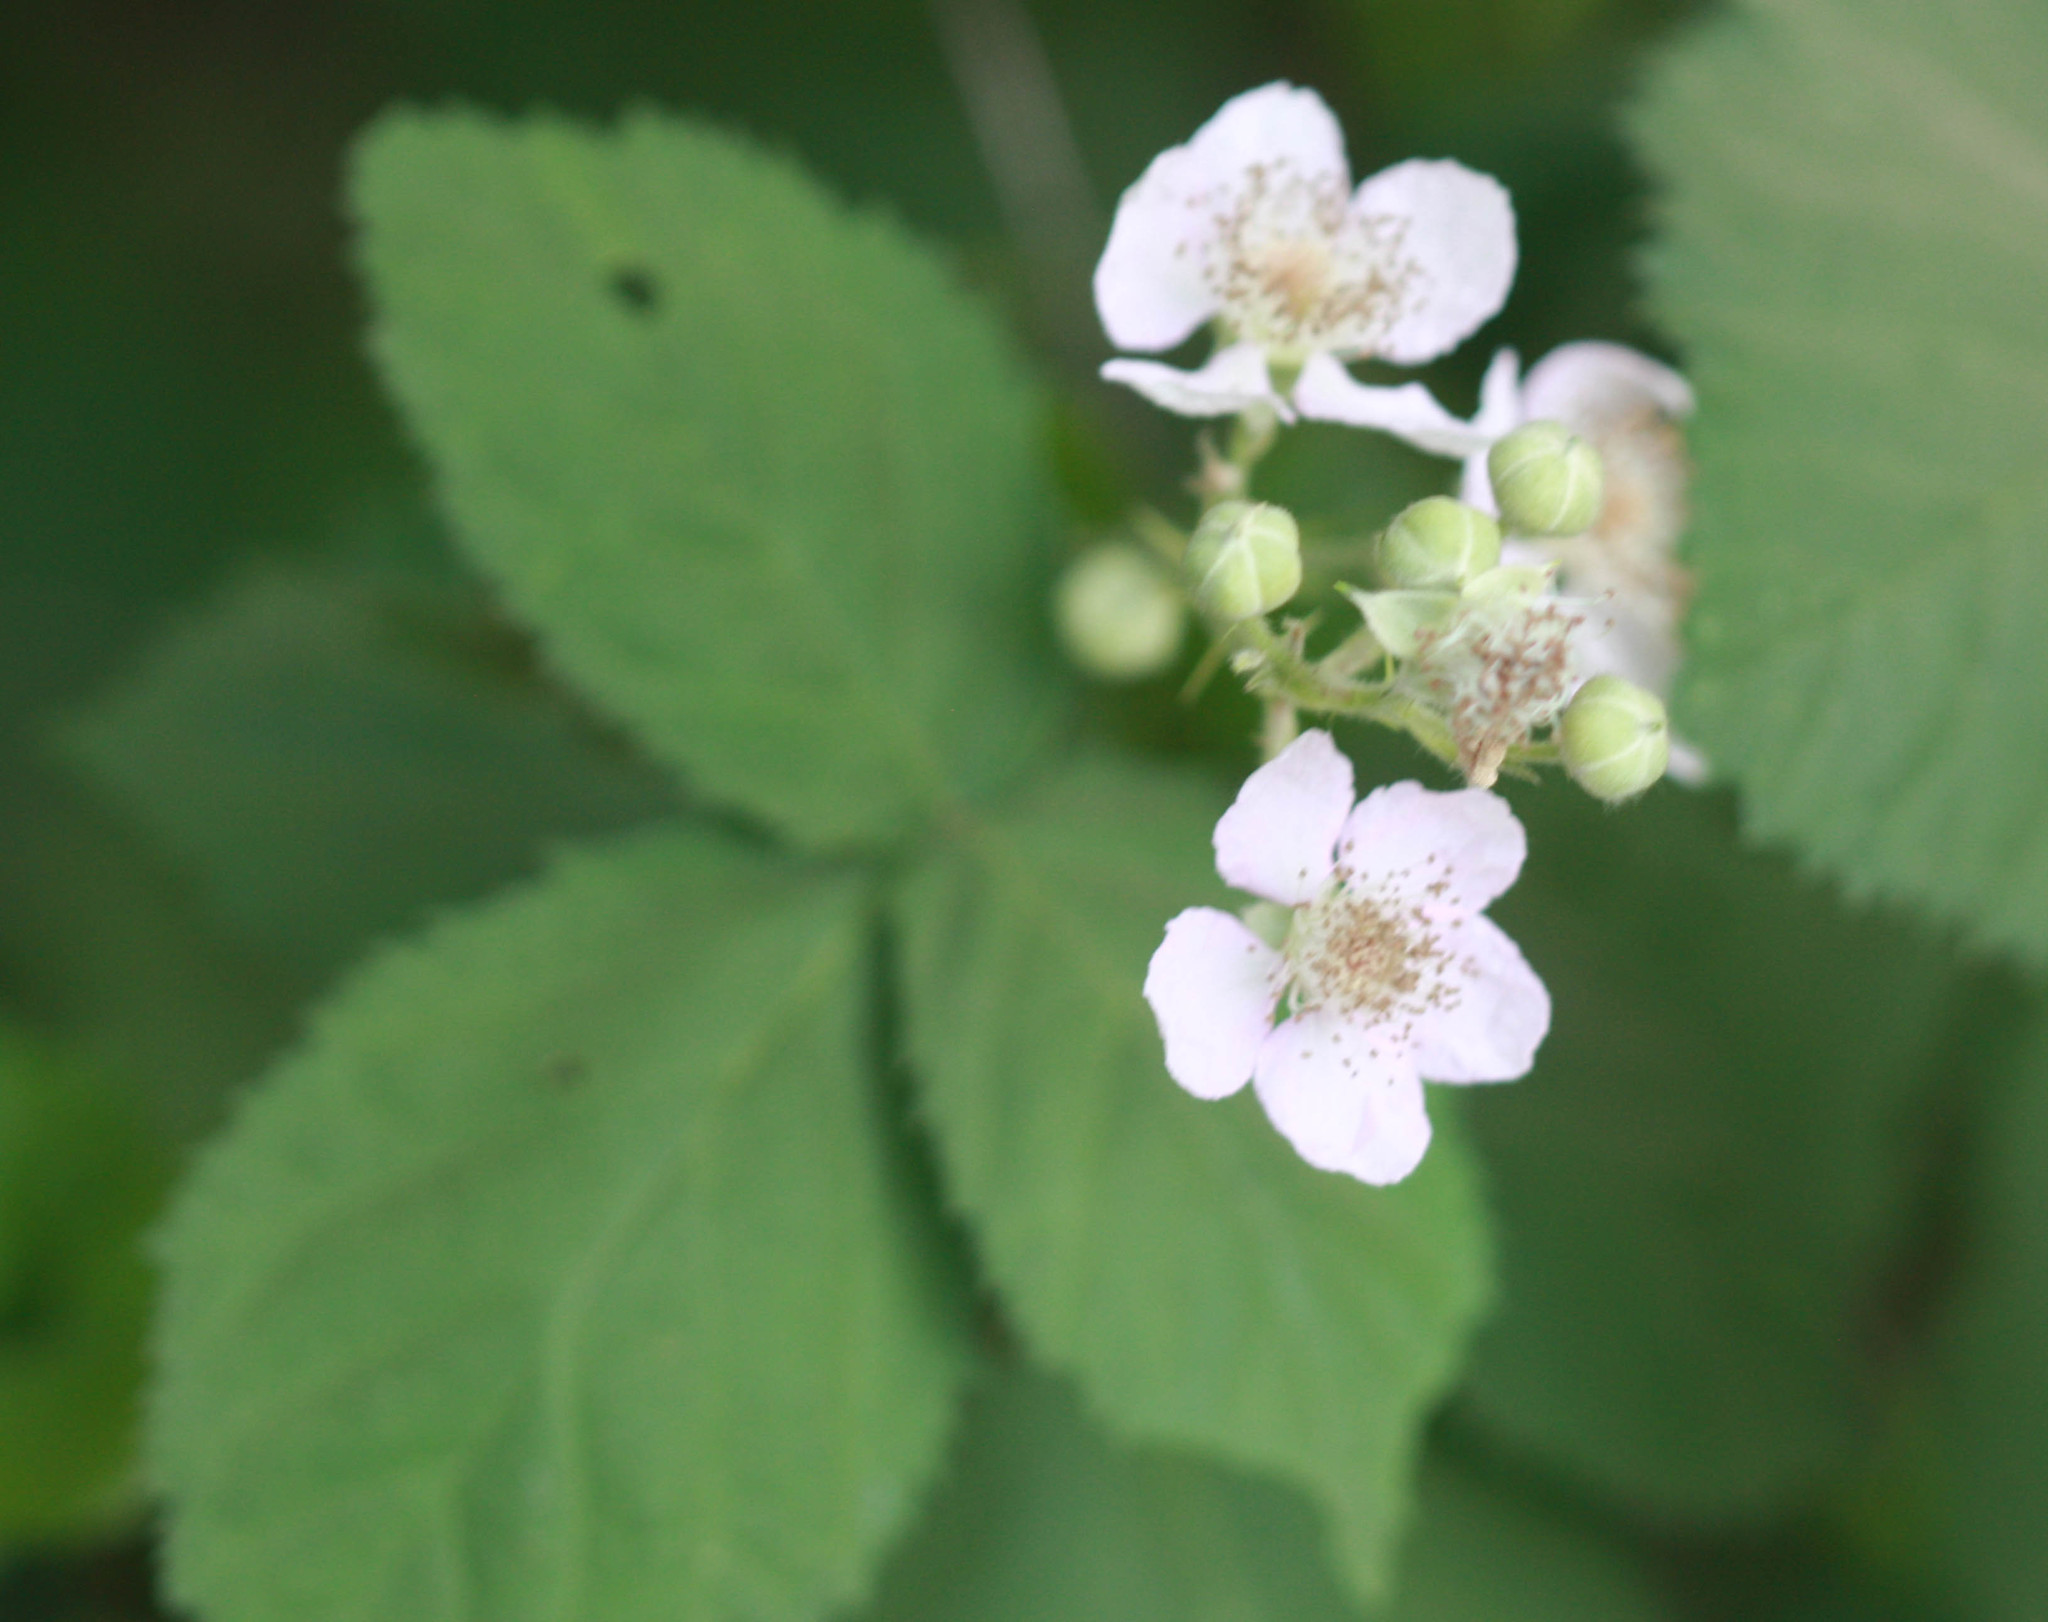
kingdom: Plantae
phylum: Tracheophyta
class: Magnoliopsida
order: Rosales
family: Rosaceae
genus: Rubus
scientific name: Rubus armeniacus
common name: Himalayan blackberry
